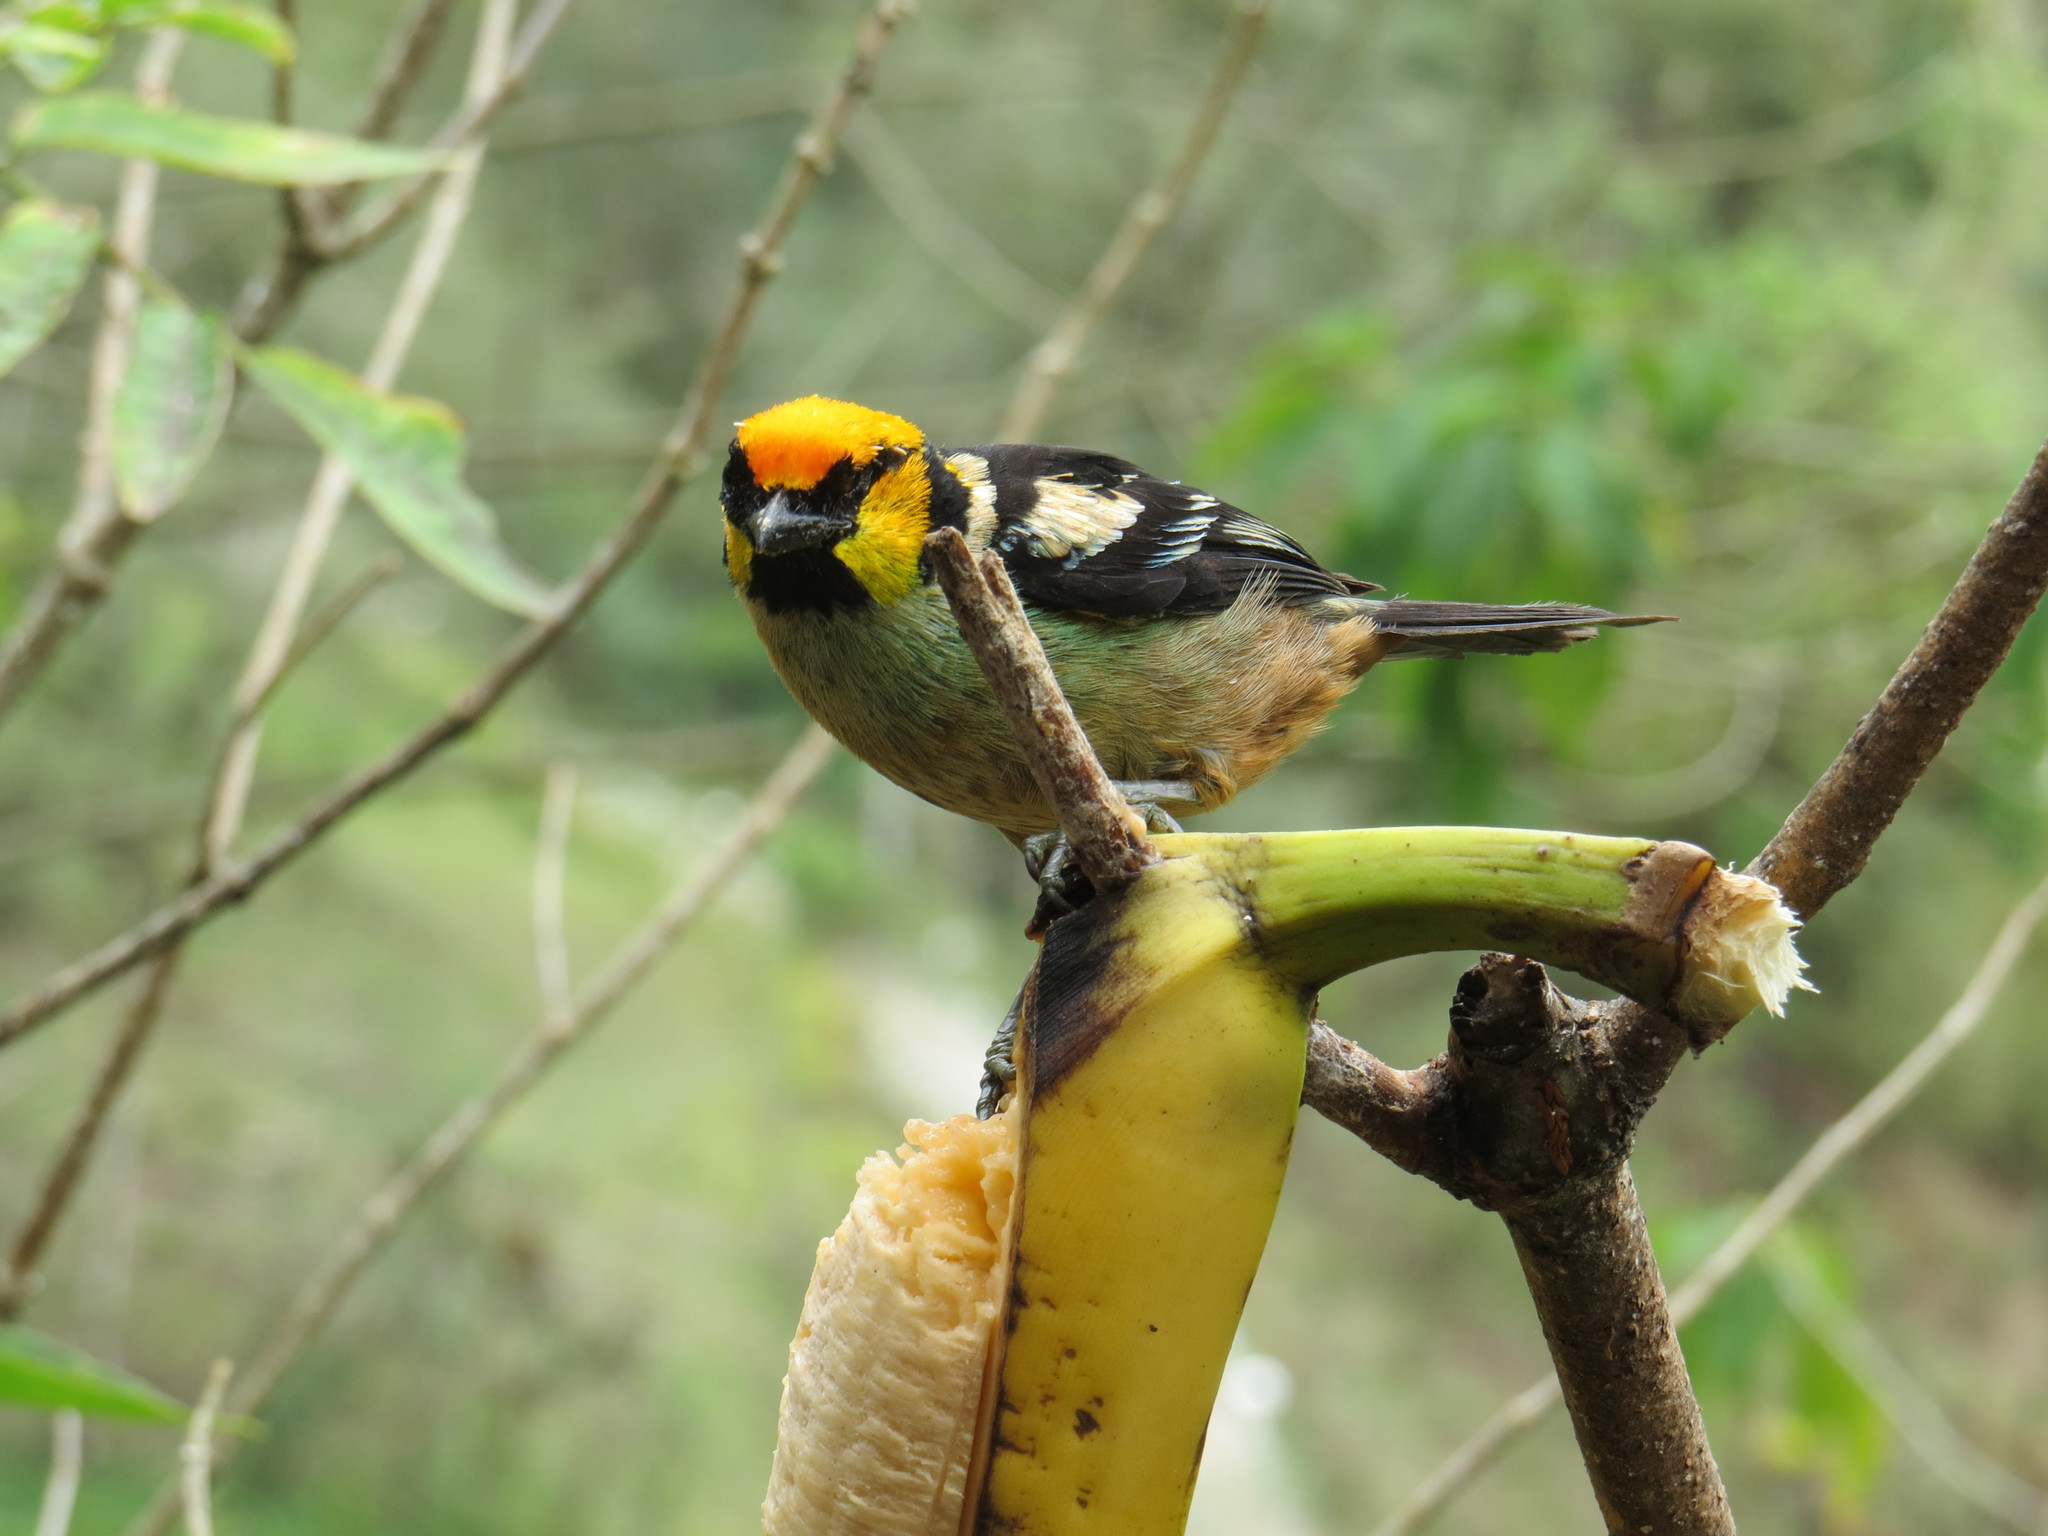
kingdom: Animalia
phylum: Chordata
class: Aves
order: Passeriformes
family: Thraupidae
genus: Tangara
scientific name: Tangara parzudakii
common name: Flame-faced tanager
